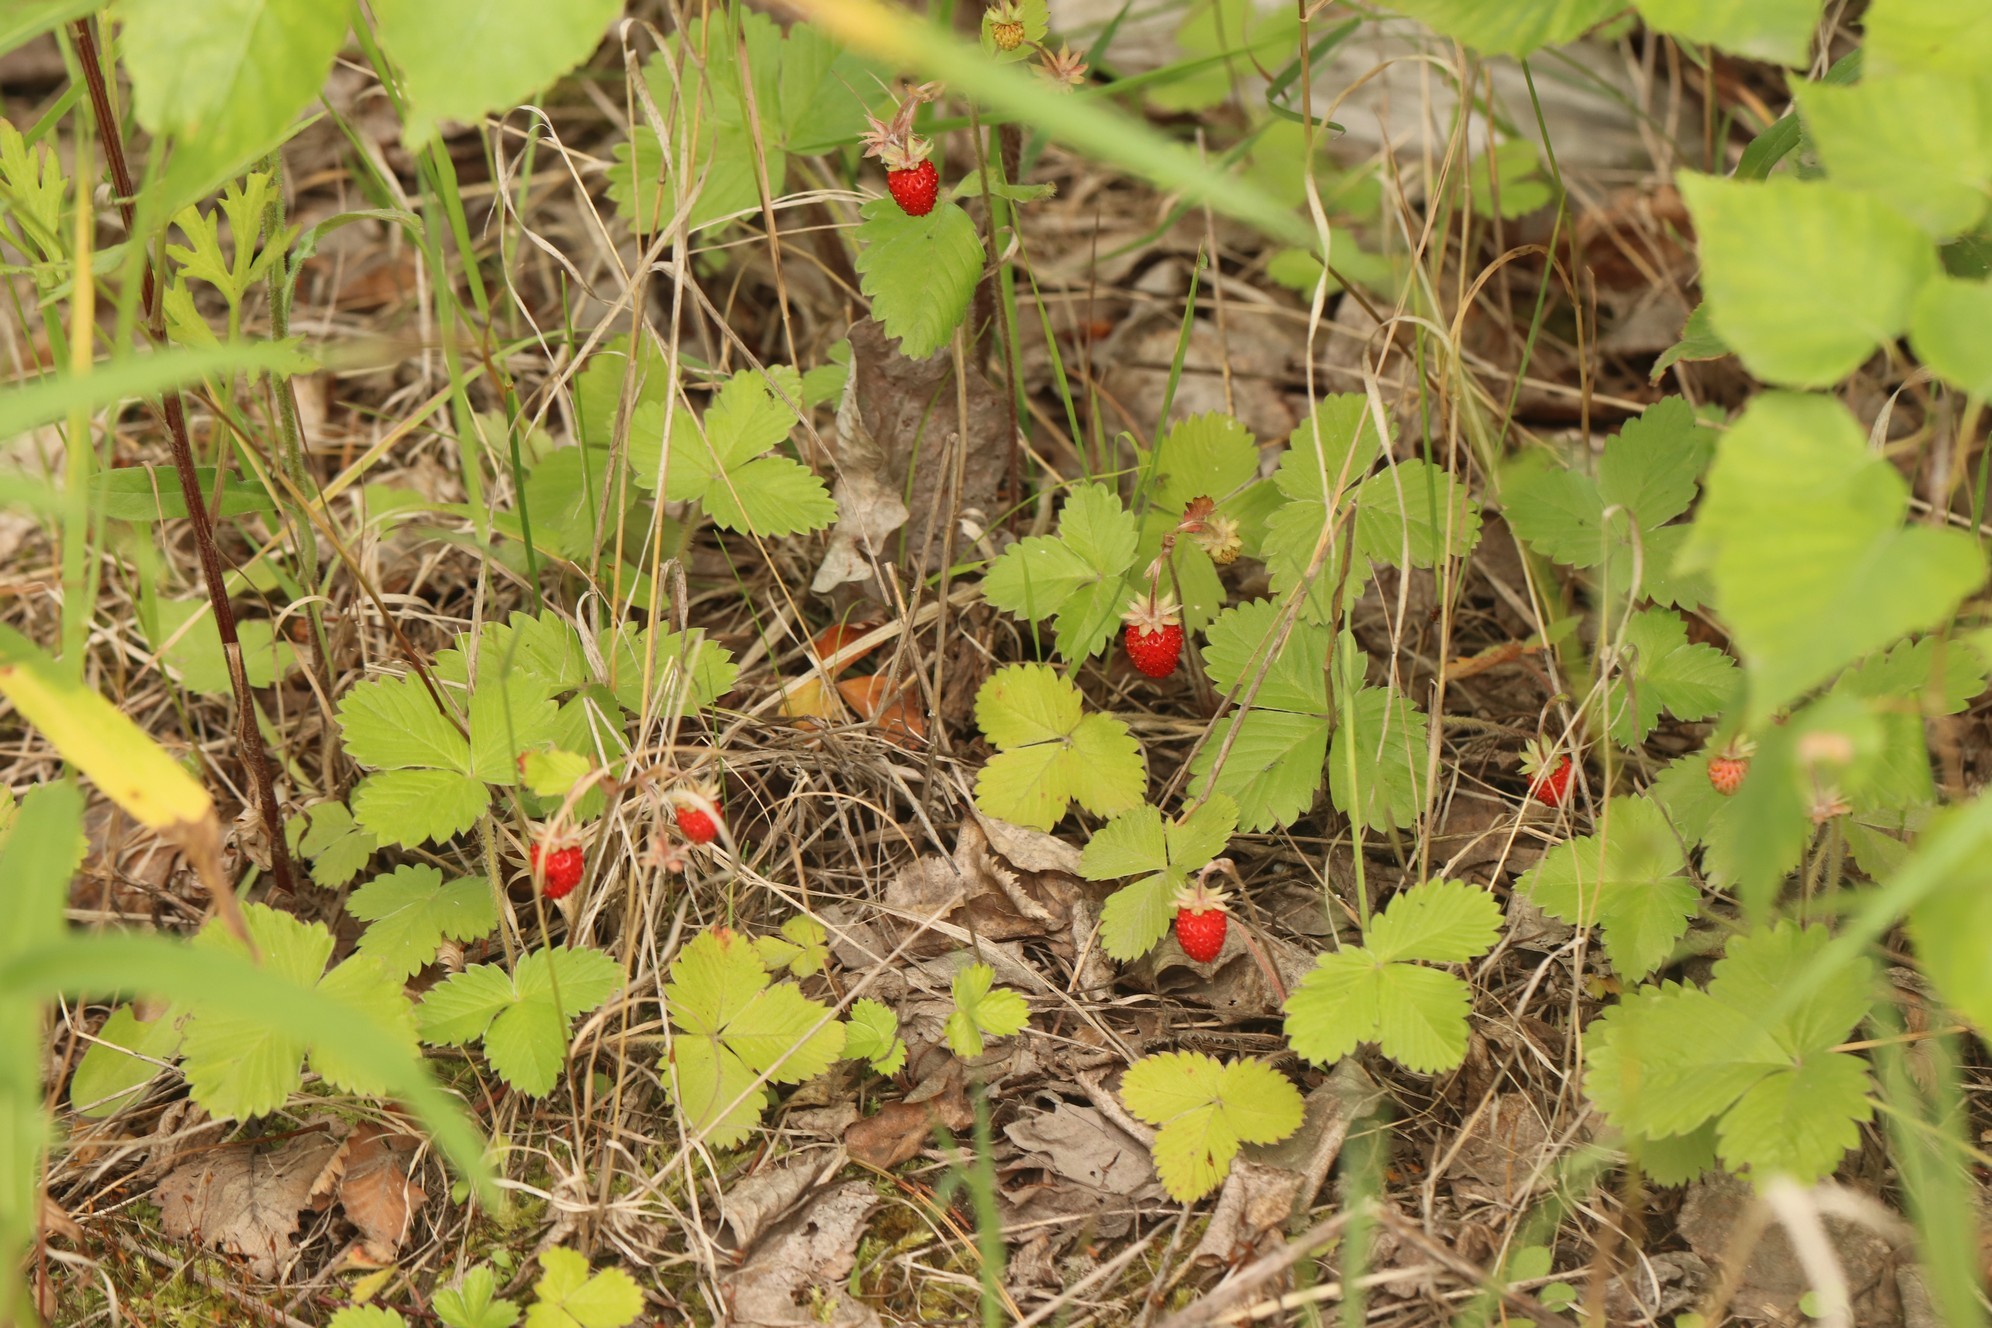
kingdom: Plantae
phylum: Tracheophyta
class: Magnoliopsida
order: Rosales
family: Rosaceae
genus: Fragaria
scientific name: Fragaria vesca
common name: Wild strawberry
